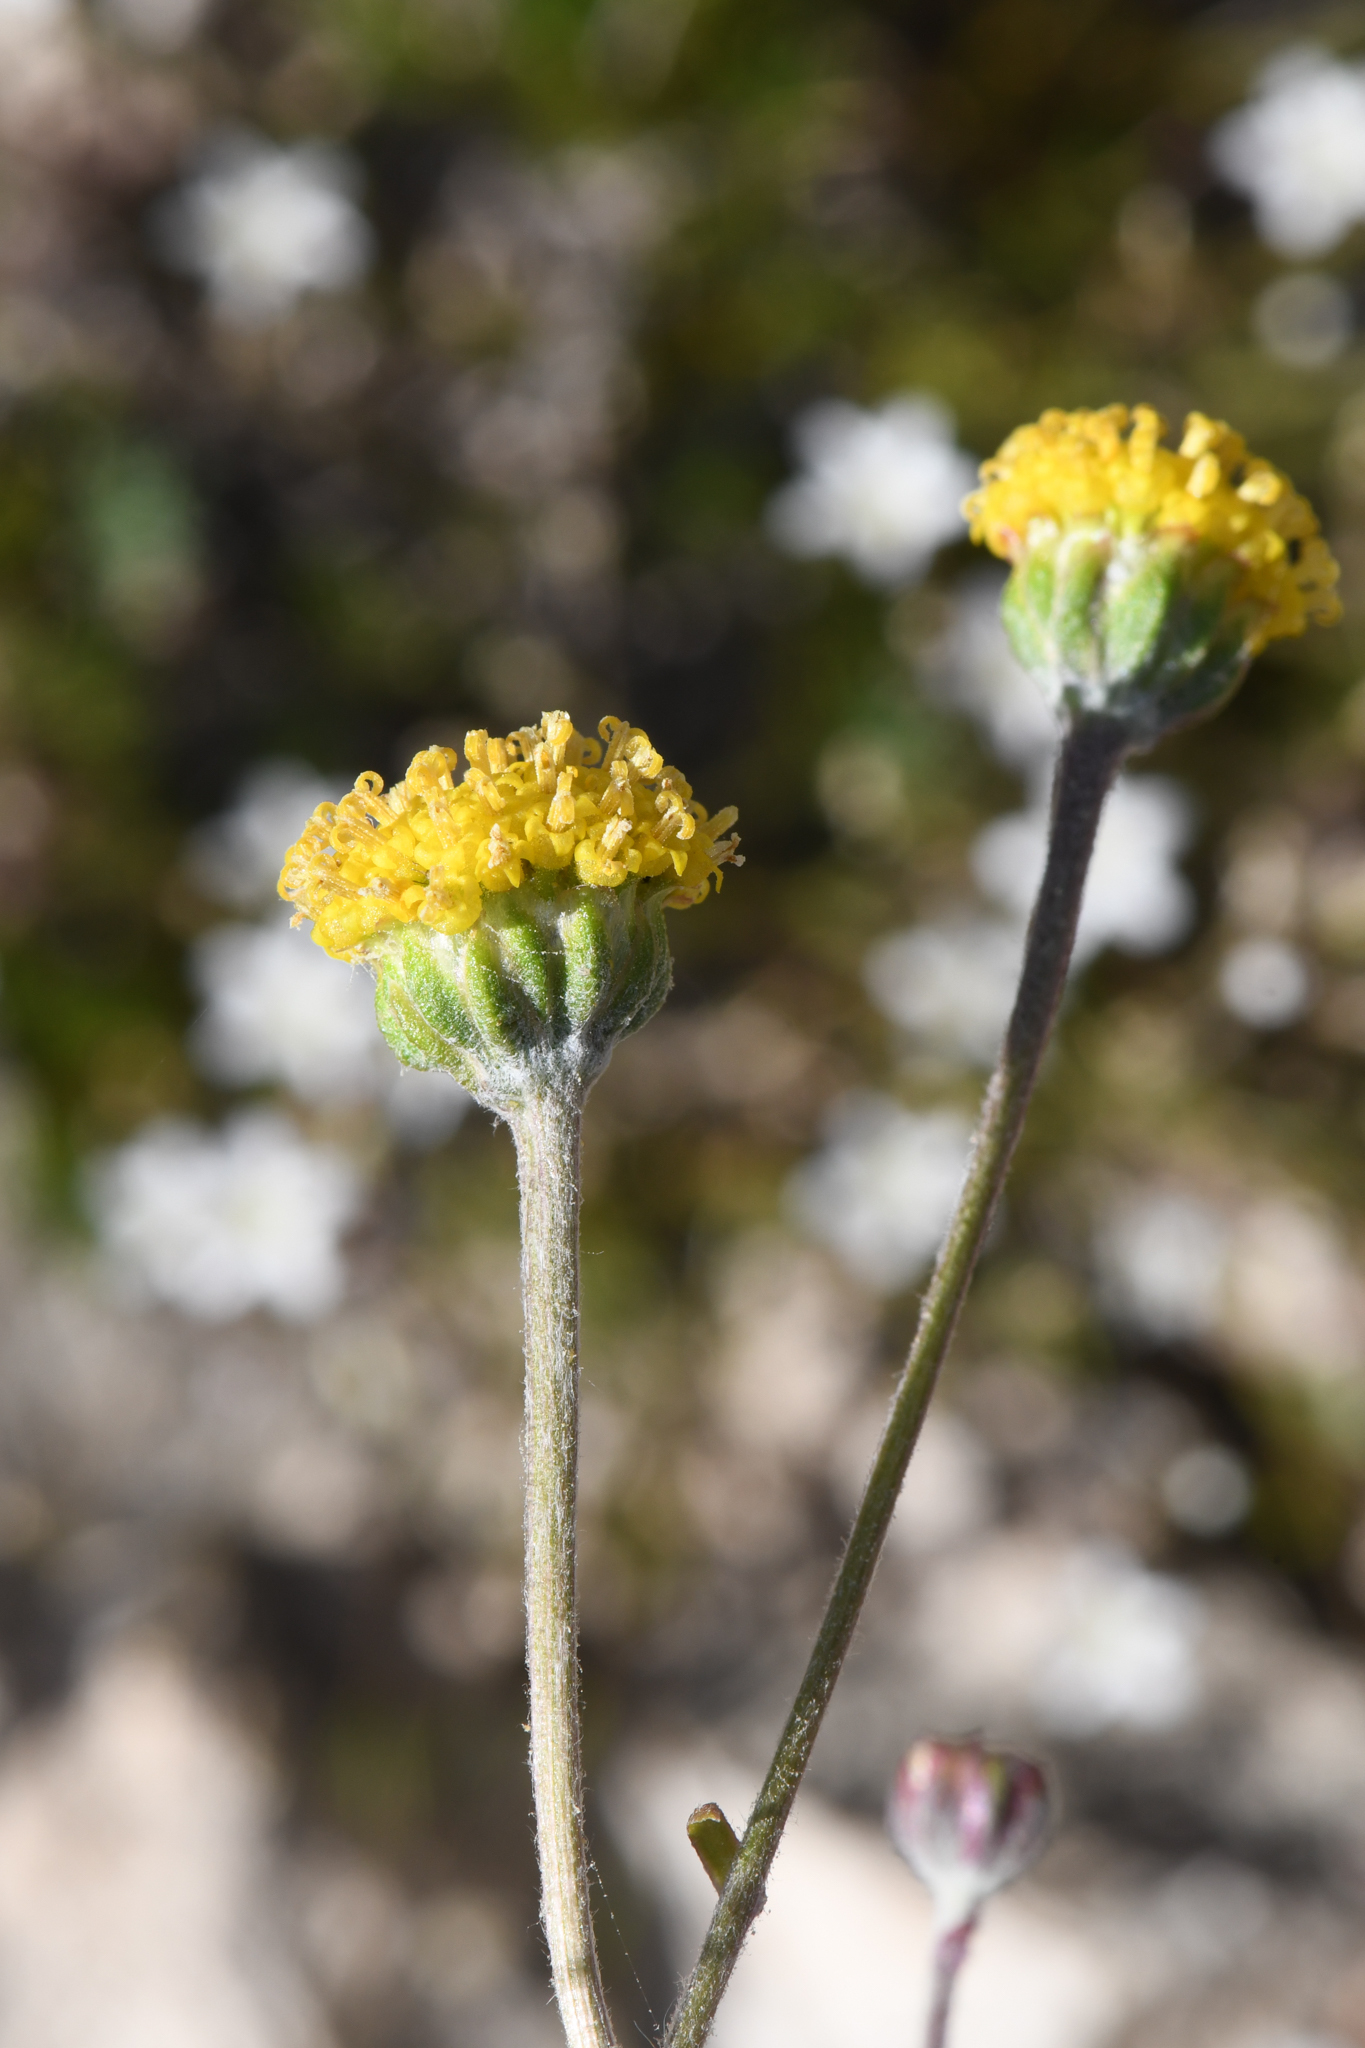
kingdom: Plantae
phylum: Tracheophyta
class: Magnoliopsida
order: Asterales
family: Asteraceae
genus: Hymenopappus
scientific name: Hymenopappus filifolius
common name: Columbia cutleaf
